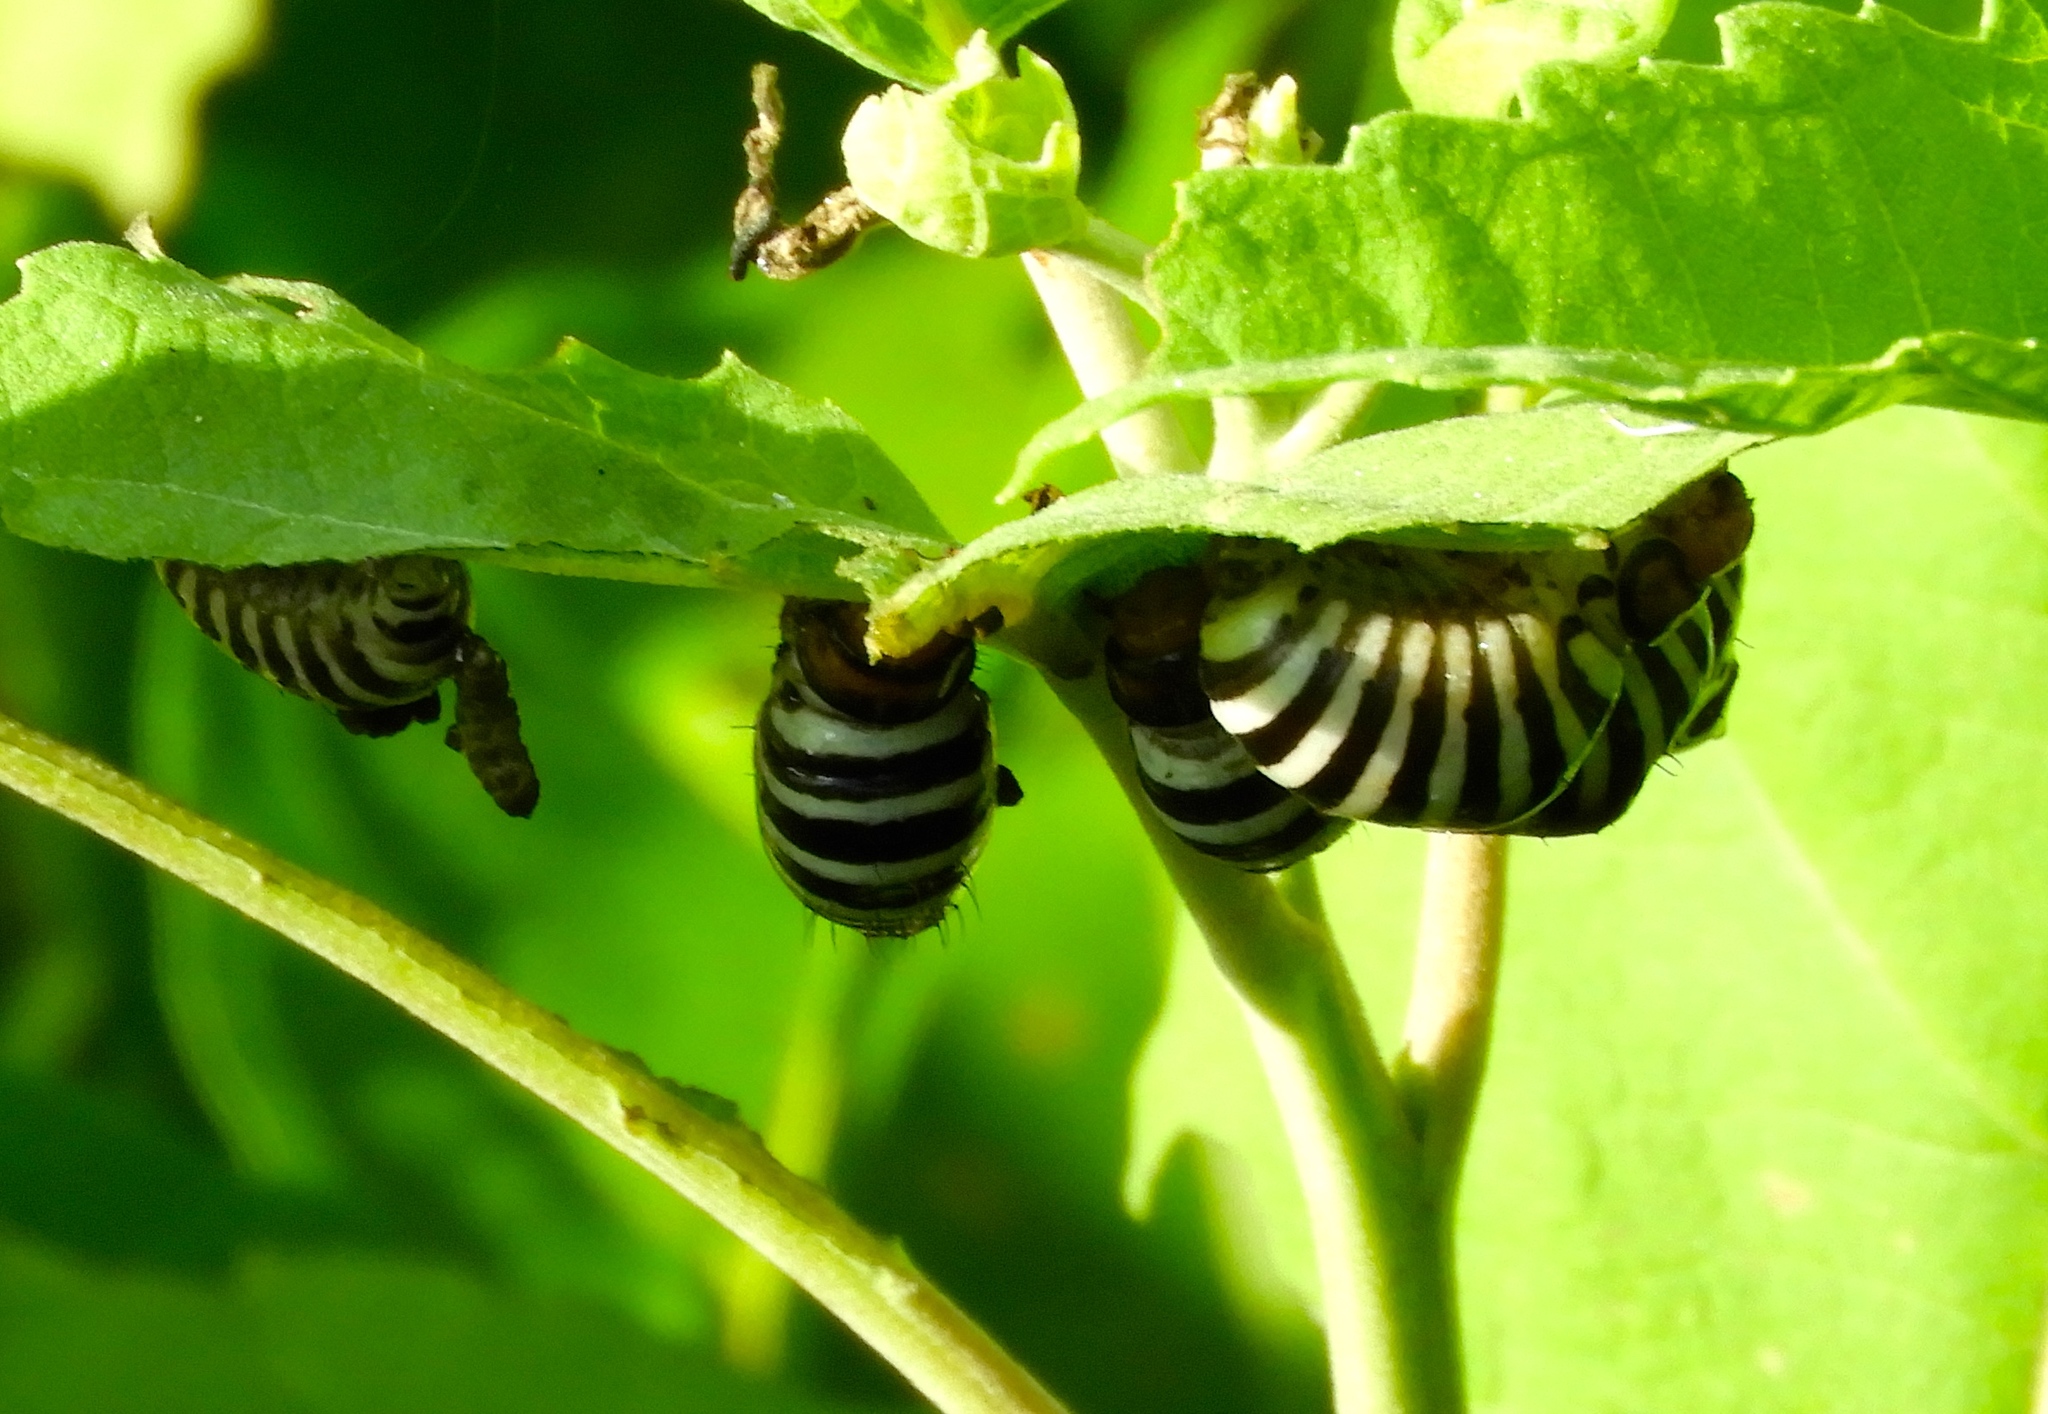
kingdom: Animalia
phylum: Arthropoda
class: Insecta
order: Coleoptera
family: Chrysomelidae
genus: Leptinotarsa
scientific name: Leptinotarsa
